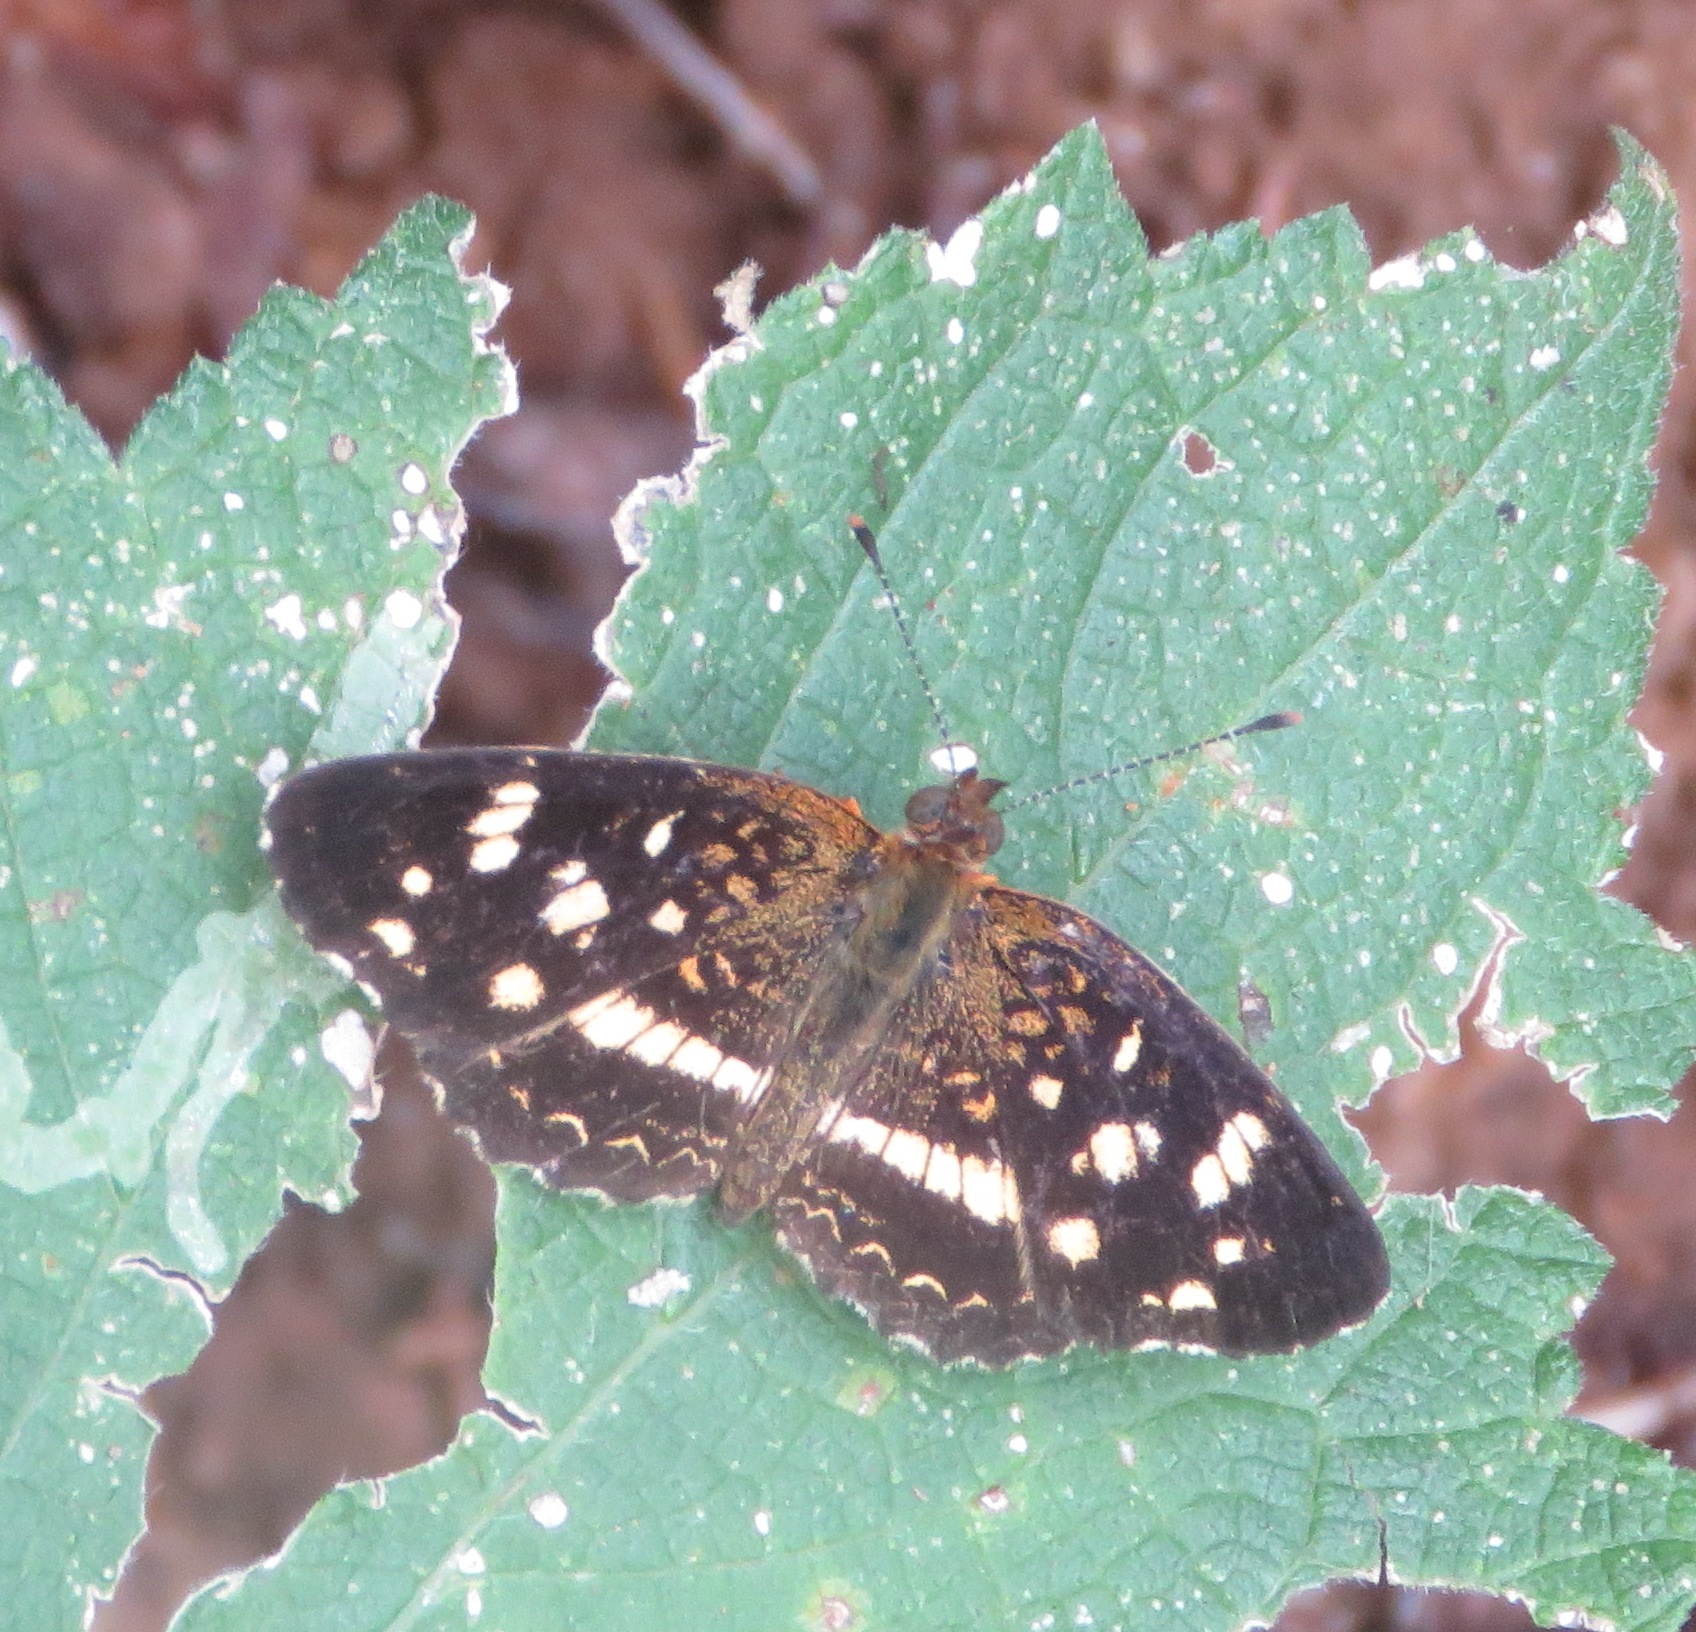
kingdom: Animalia
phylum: Arthropoda
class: Insecta
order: Lepidoptera
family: Nymphalidae
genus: Anthanassa
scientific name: Anthanassa tulcis
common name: Pale-banded crescent
